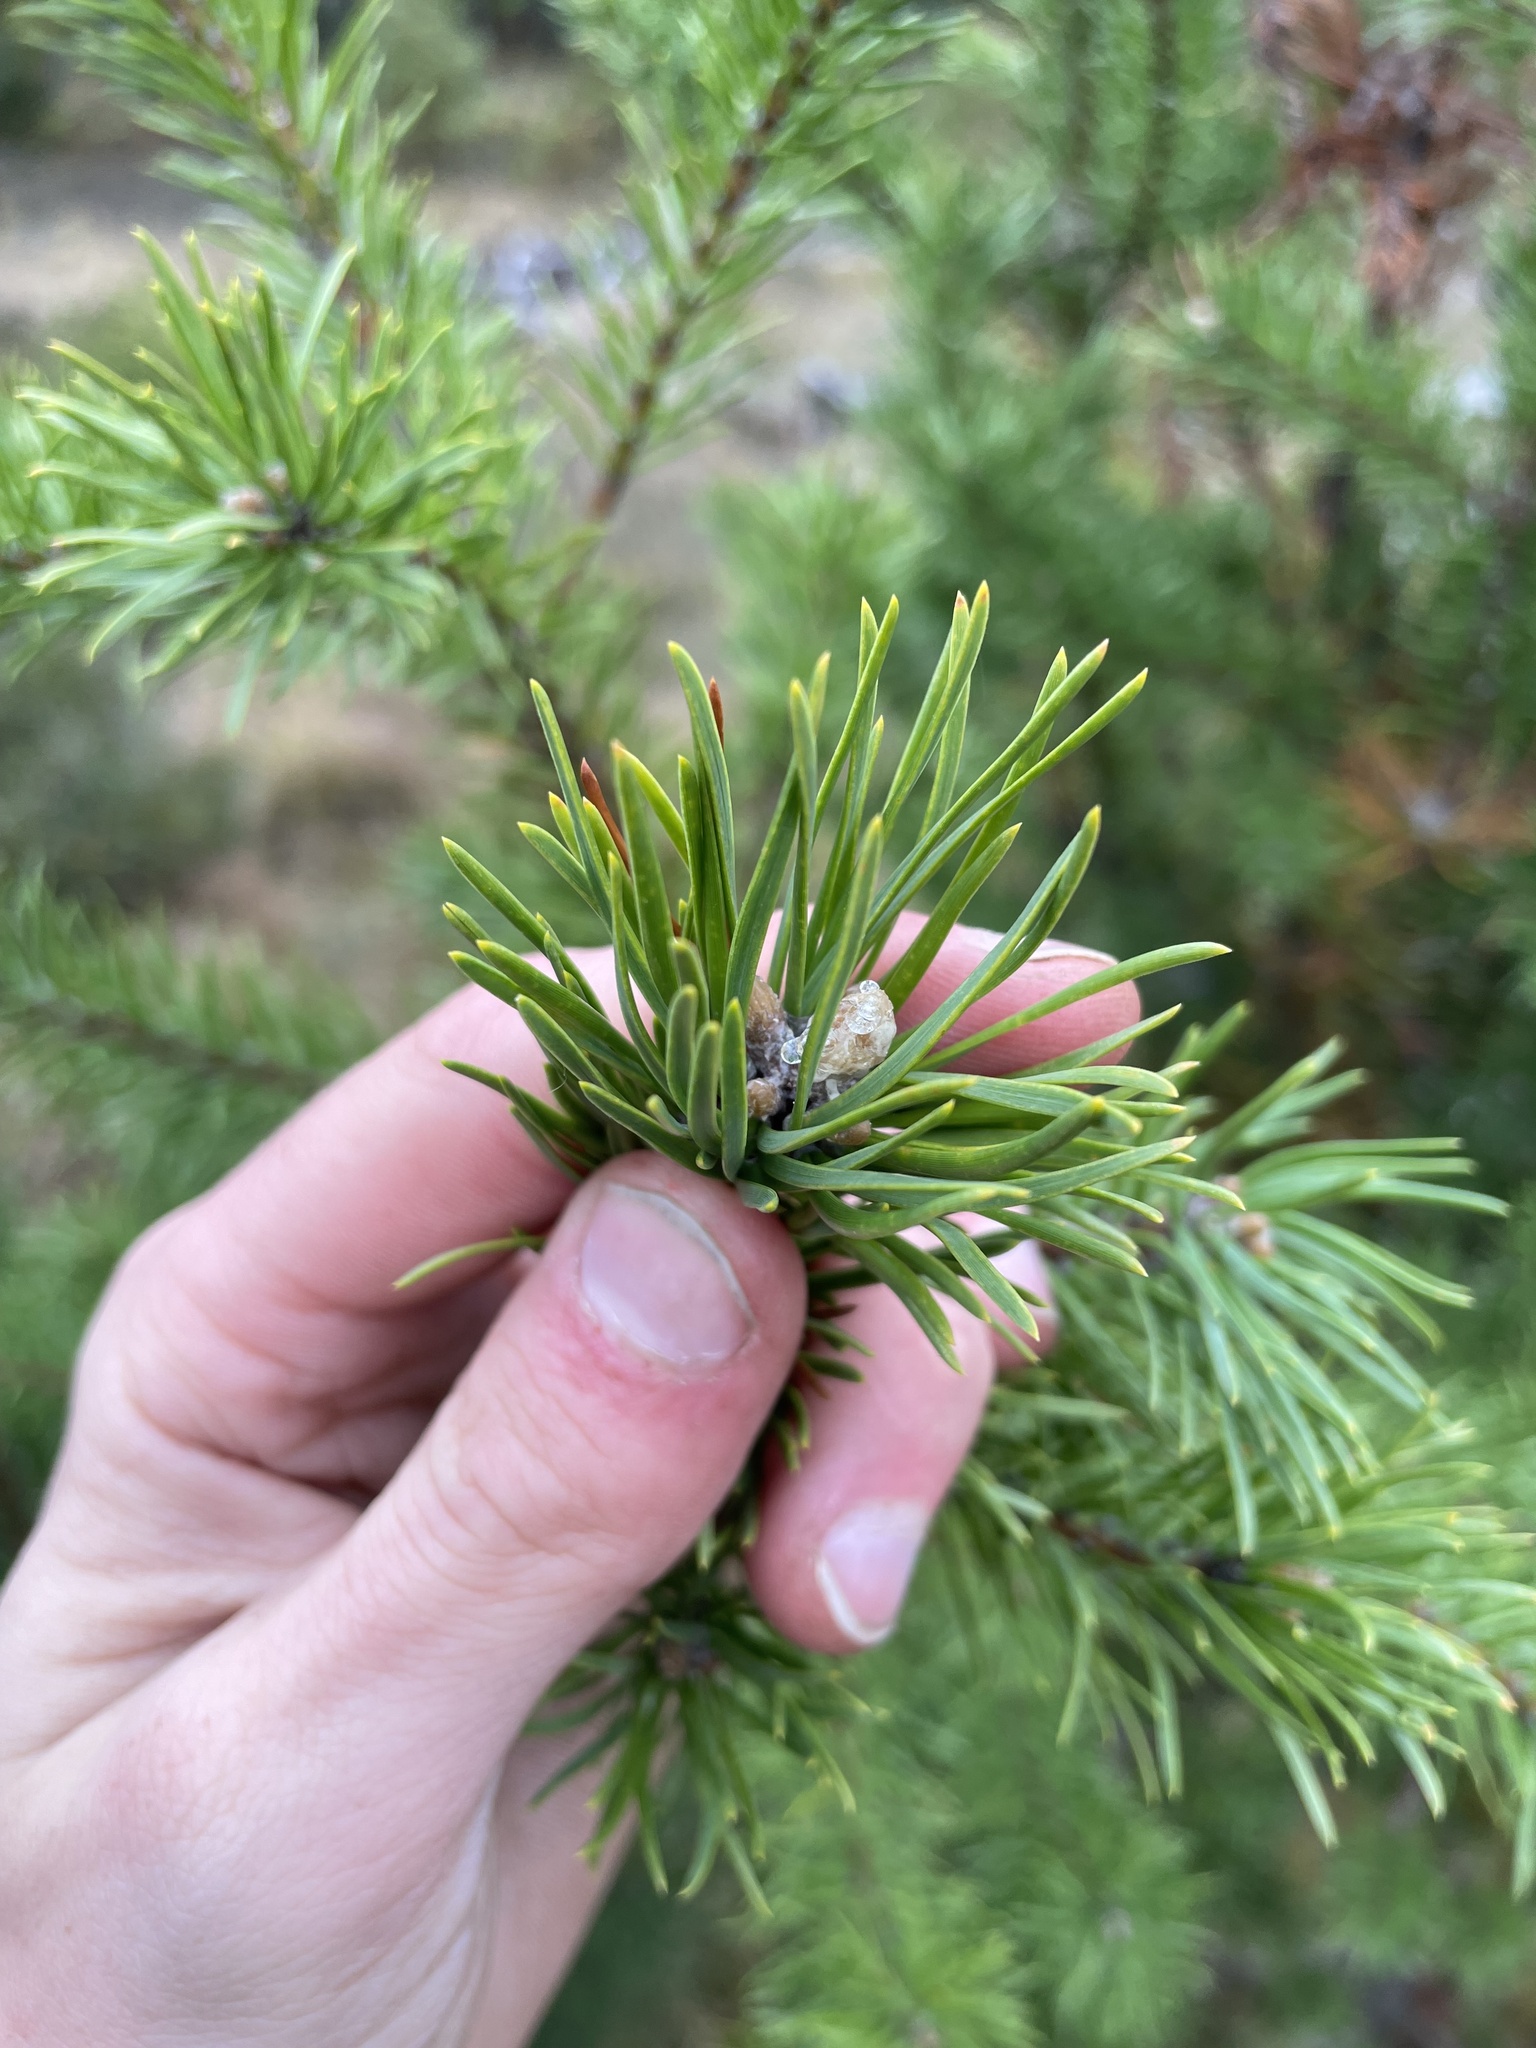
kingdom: Plantae
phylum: Tracheophyta
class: Pinopsida
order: Pinales
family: Pinaceae
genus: Pinus
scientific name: Pinus banksiana
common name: Jack pine
